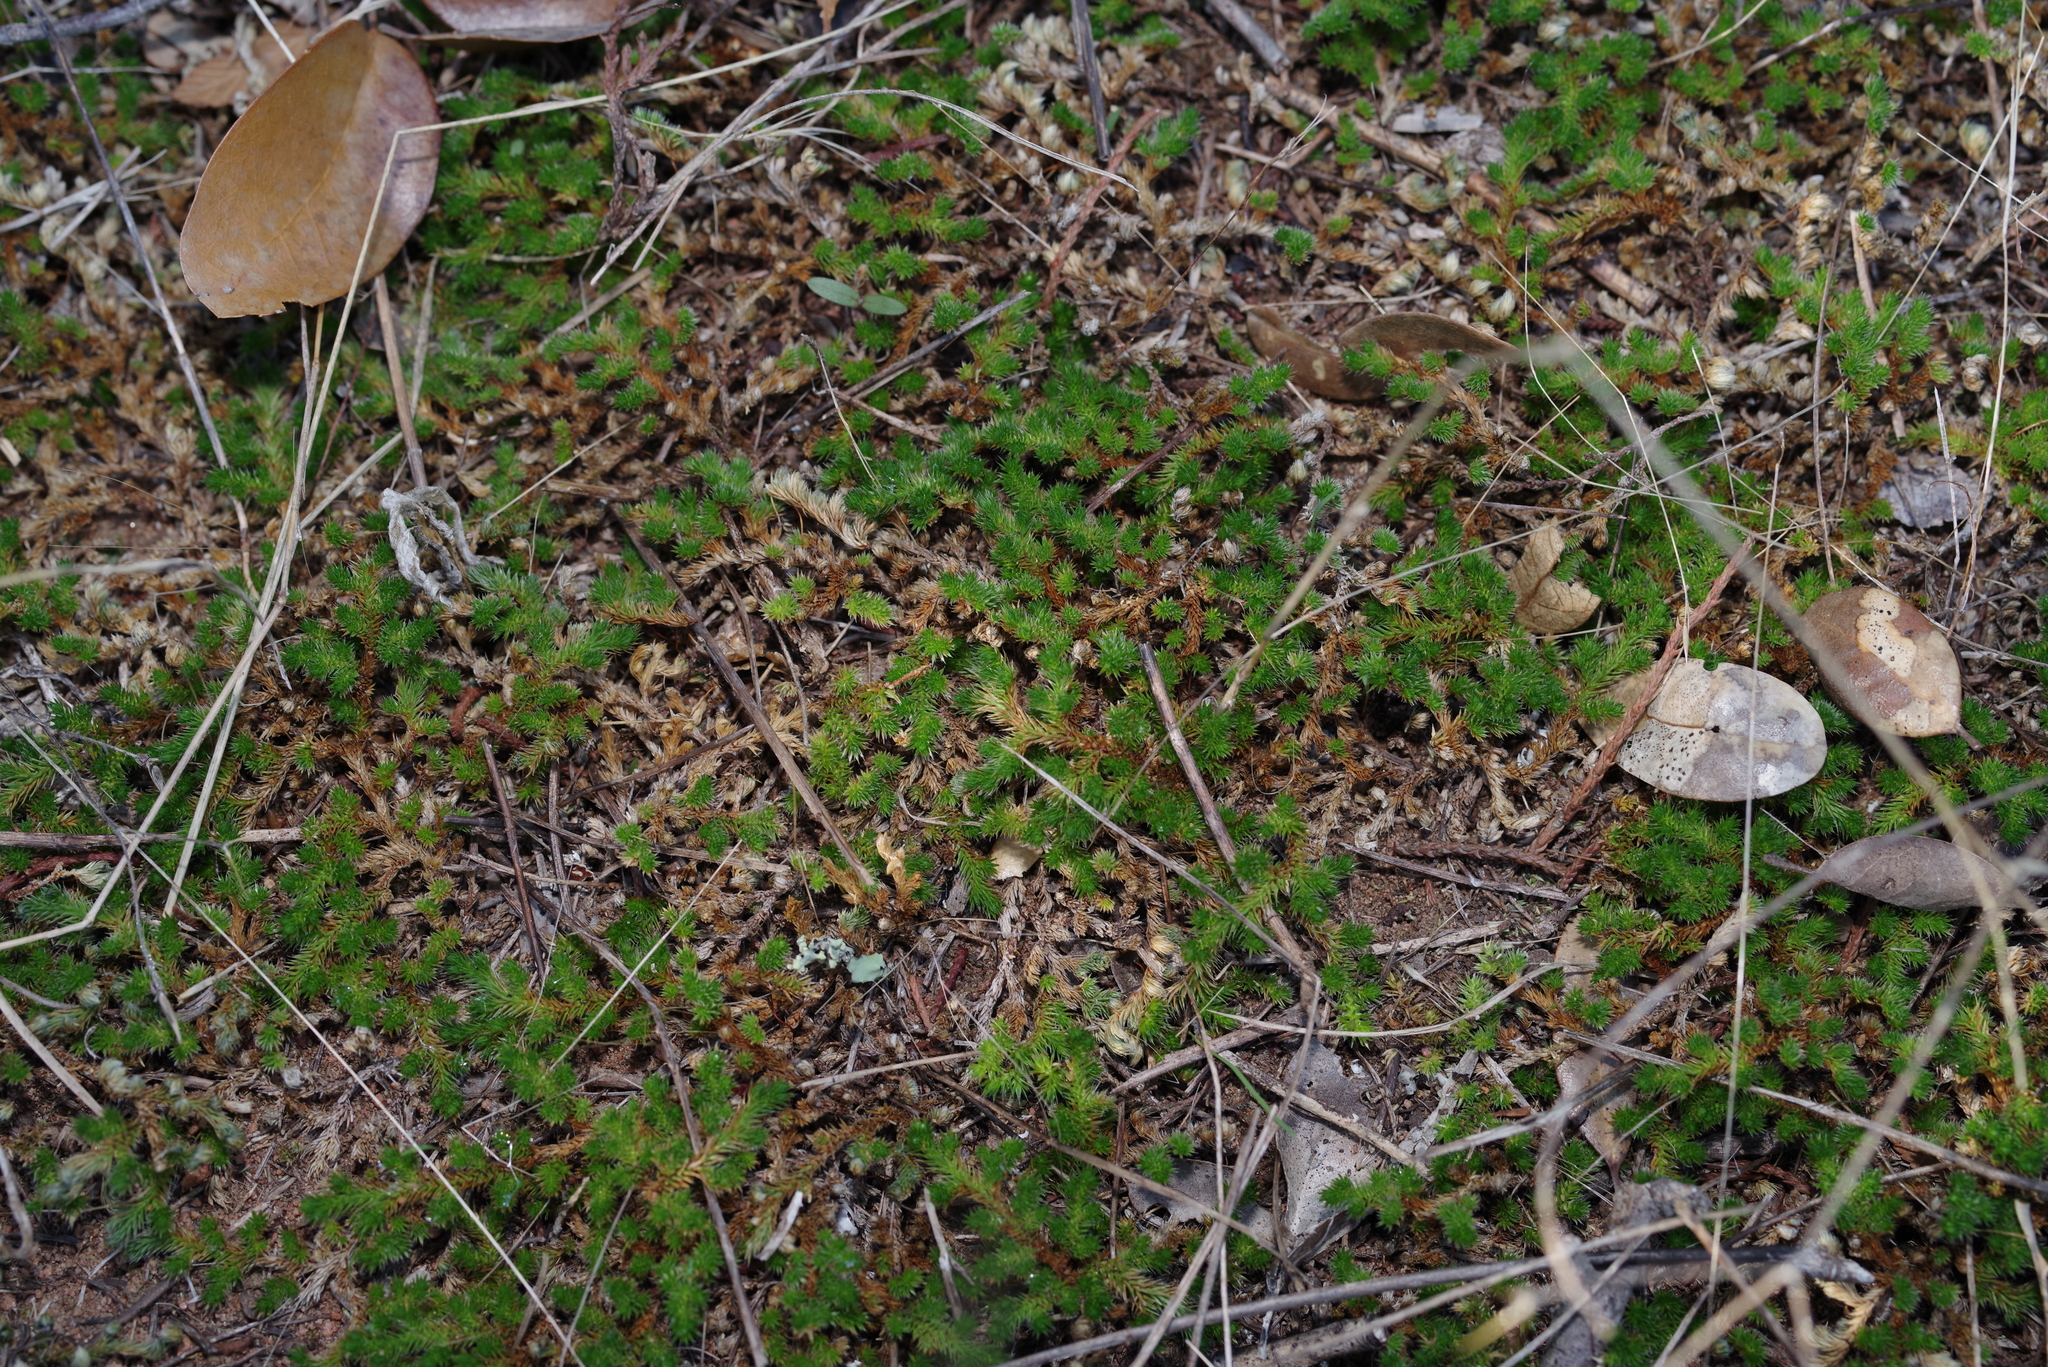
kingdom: Plantae
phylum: Tracheophyta
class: Lycopodiopsida
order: Selaginellales
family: Selaginellaceae
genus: Selaginella
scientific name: Selaginella peruviana
